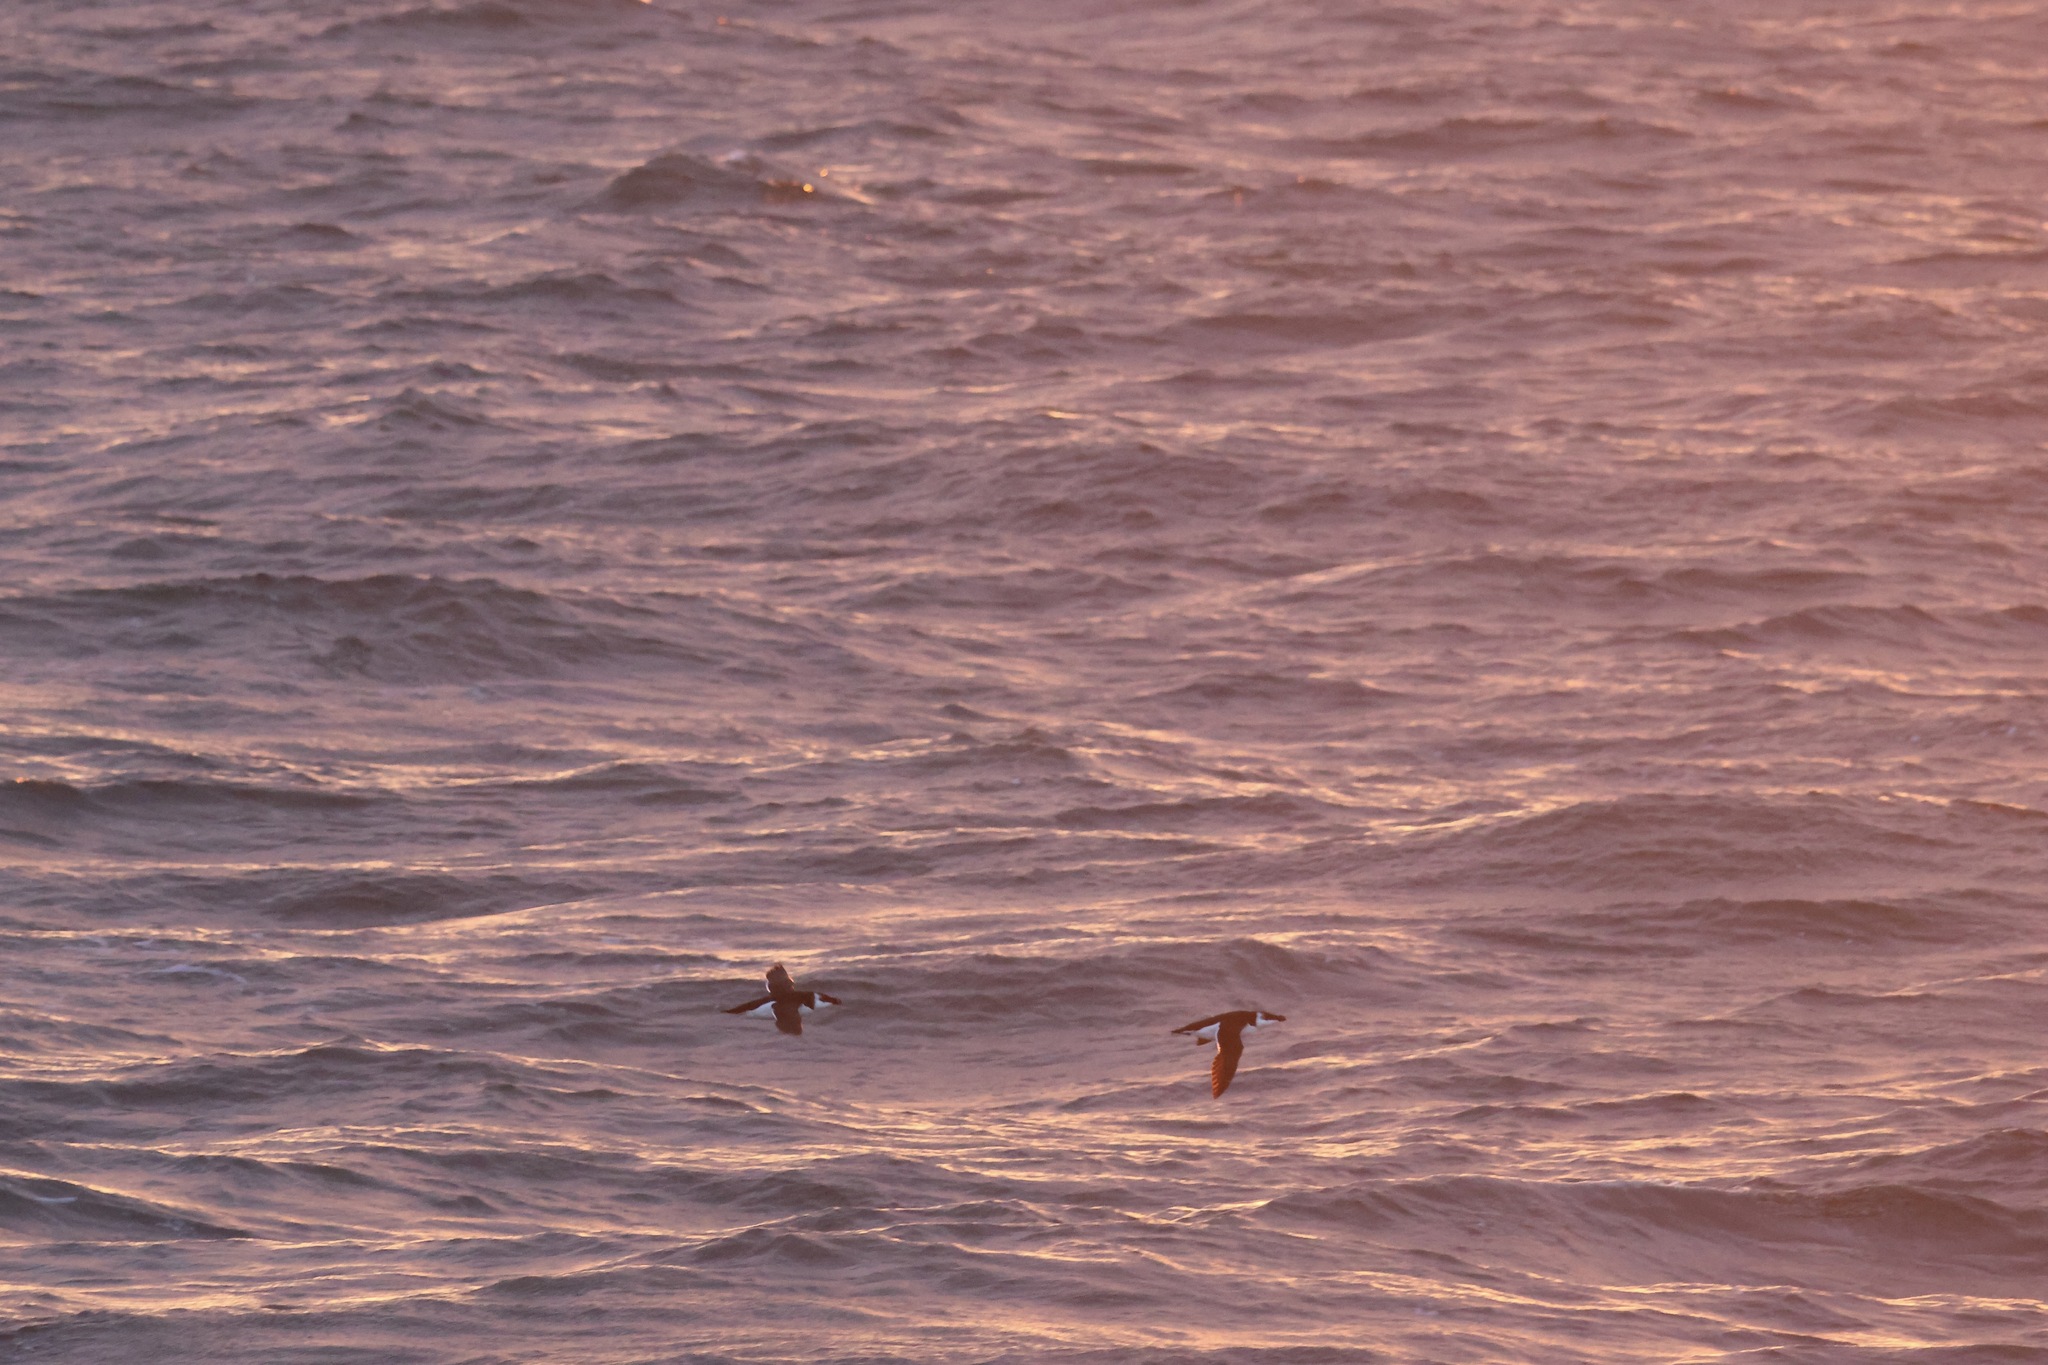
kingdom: Animalia
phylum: Chordata
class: Aves
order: Charadriiformes
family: Alcidae
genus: Alca
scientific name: Alca torda
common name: Razorbill
